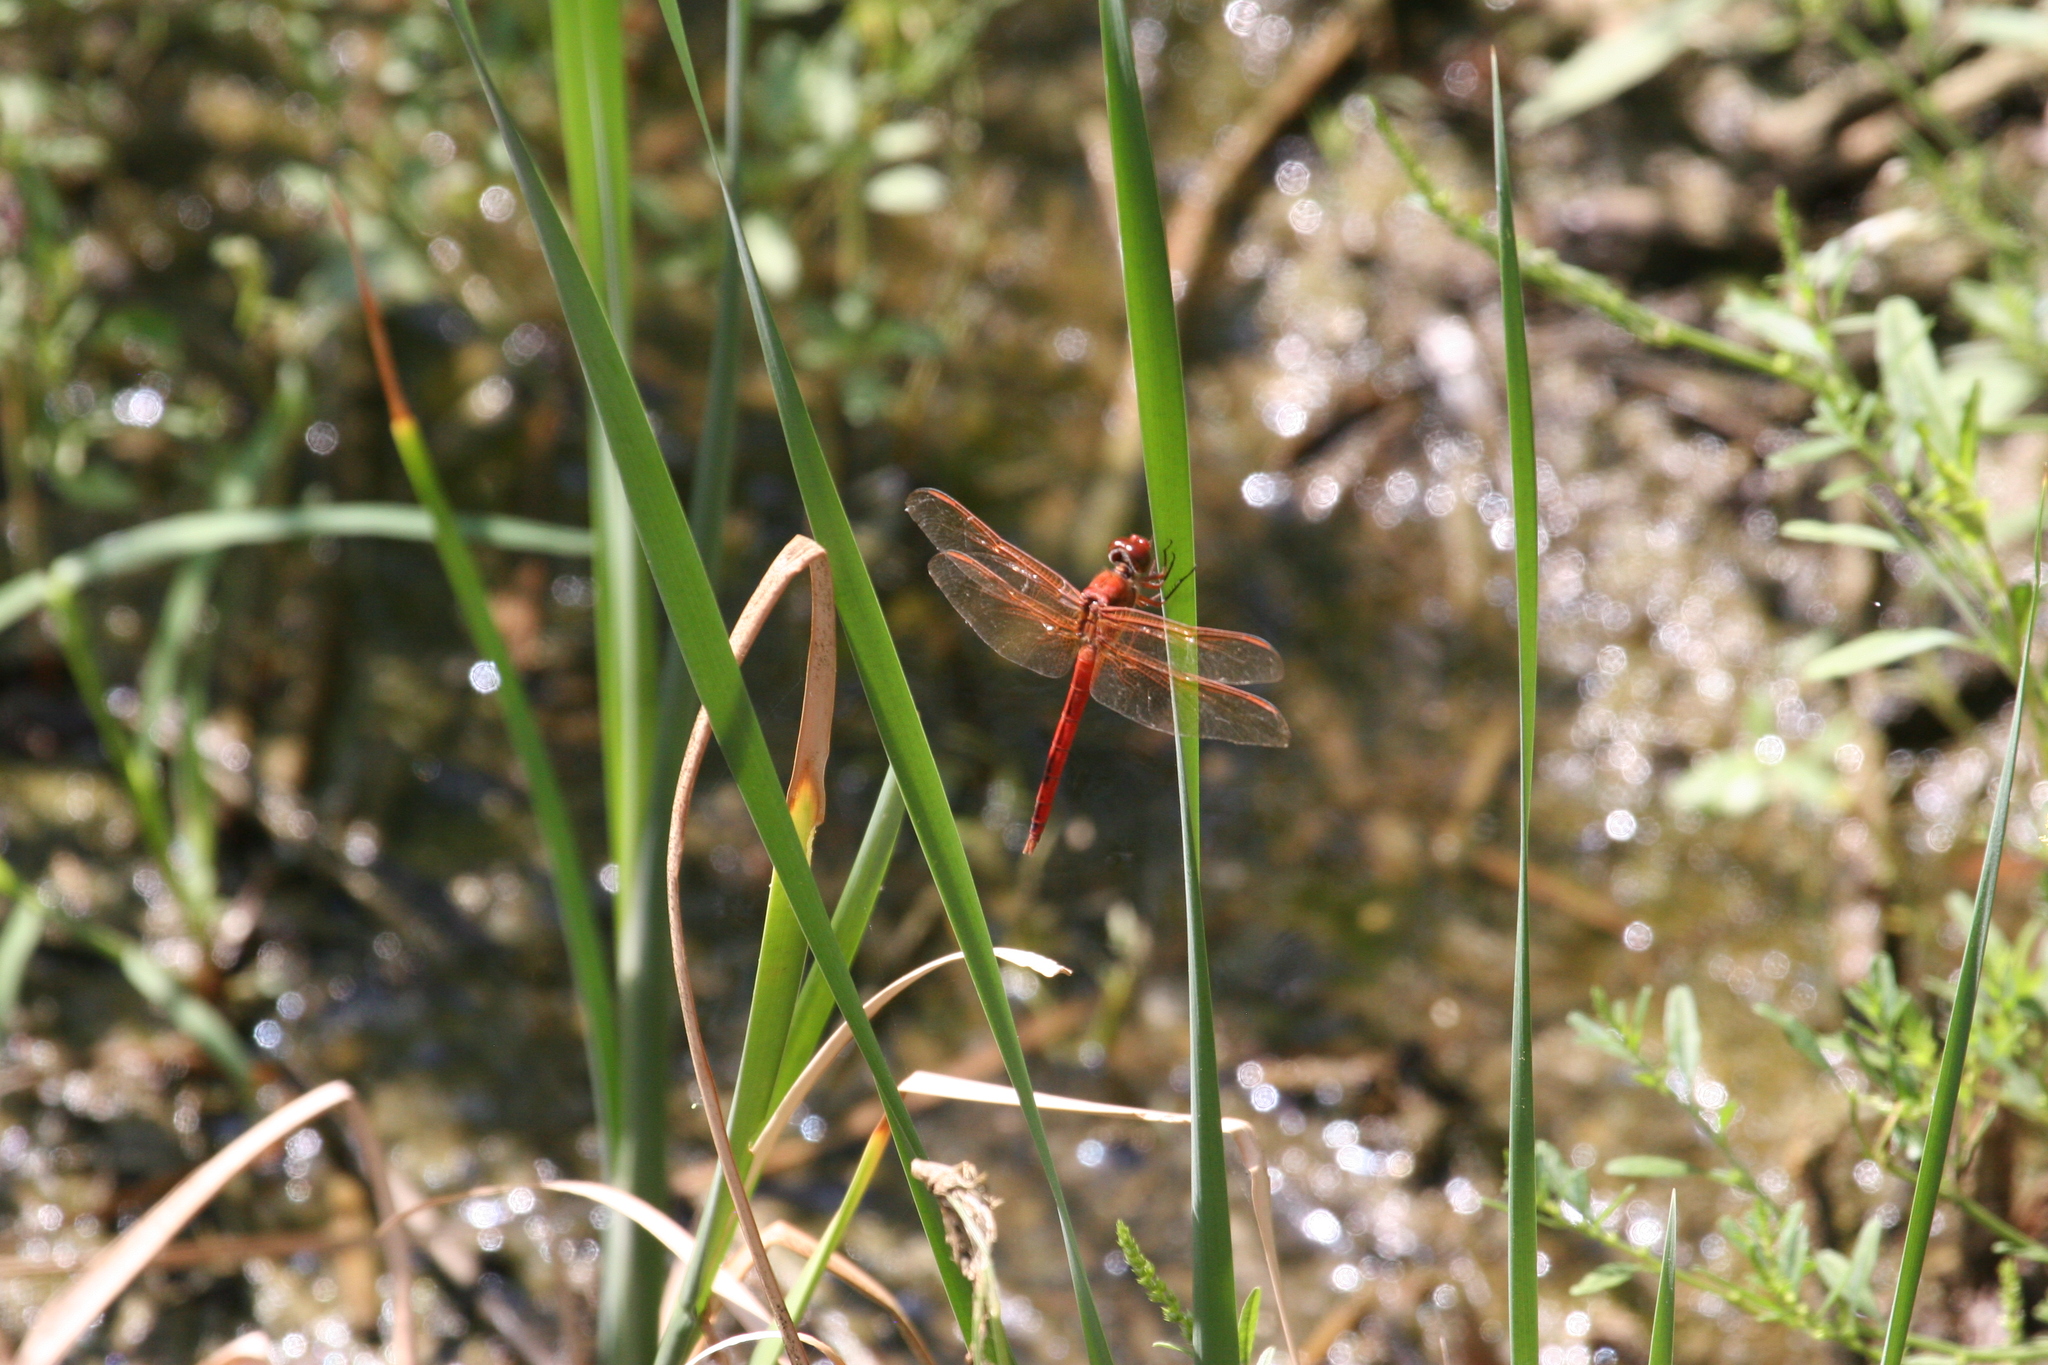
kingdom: Animalia
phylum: Arthropoda
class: Insecta
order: Odonata
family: Libellulidae
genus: Libellula
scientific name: Libellula needhami
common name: Needham's skimmer
